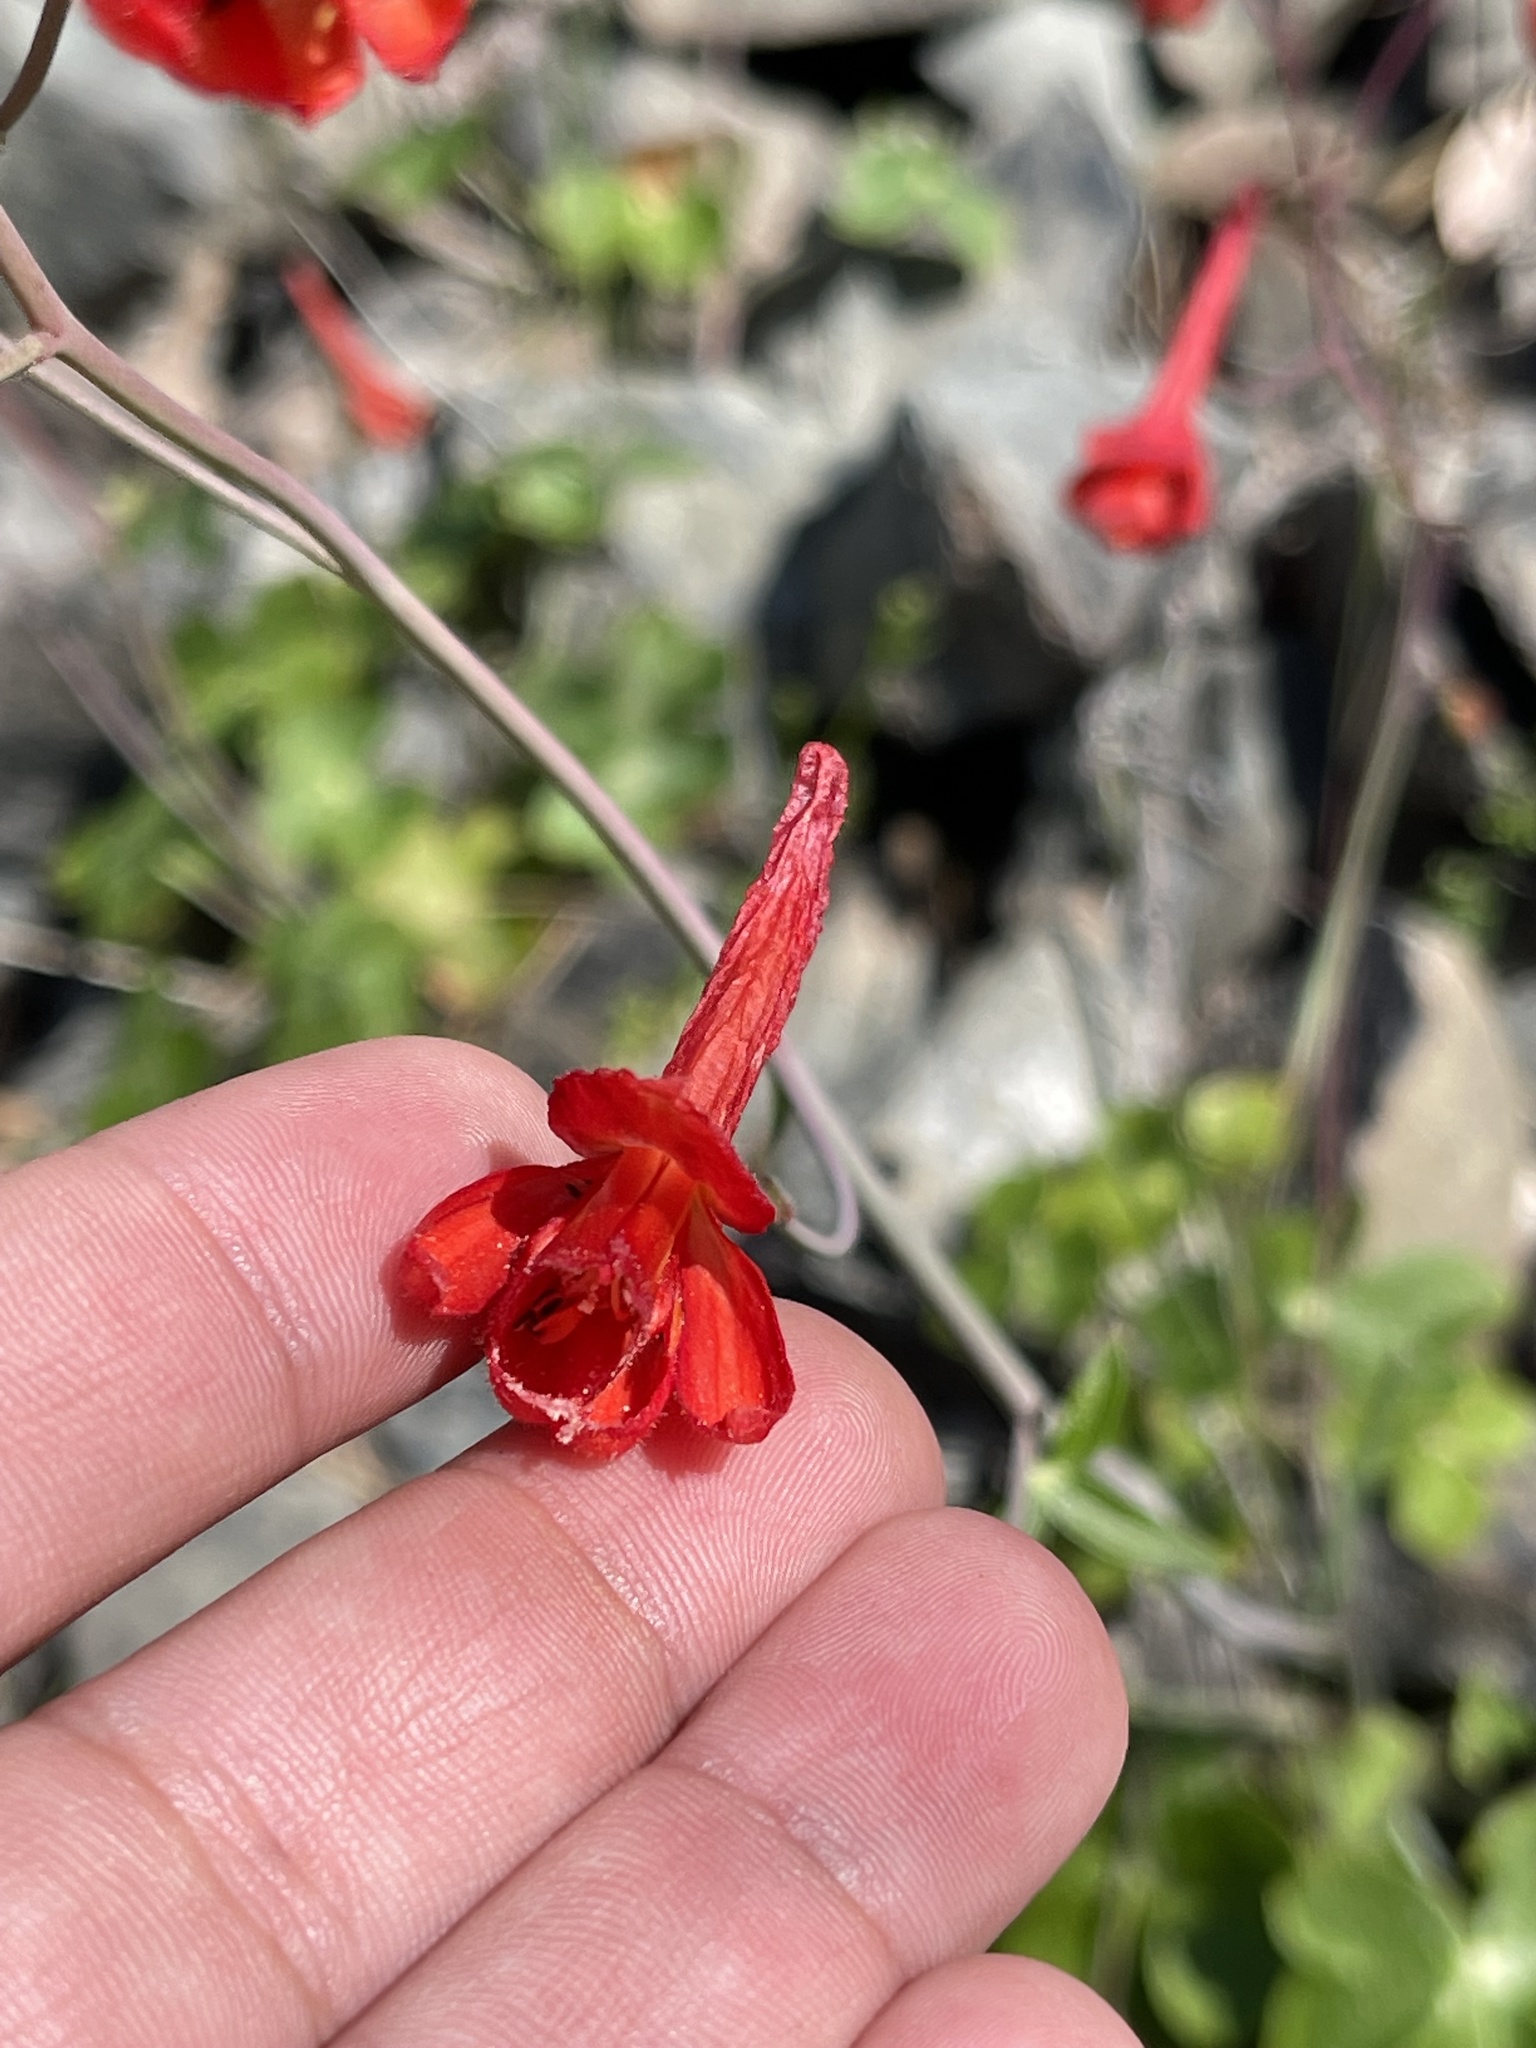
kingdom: Plantae
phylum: Tracheophyta
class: Magnoliopsida
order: Ranunculales
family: Ranunculaceae
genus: Delphinium
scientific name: Delphinium nudicaule
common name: Red larkspur
